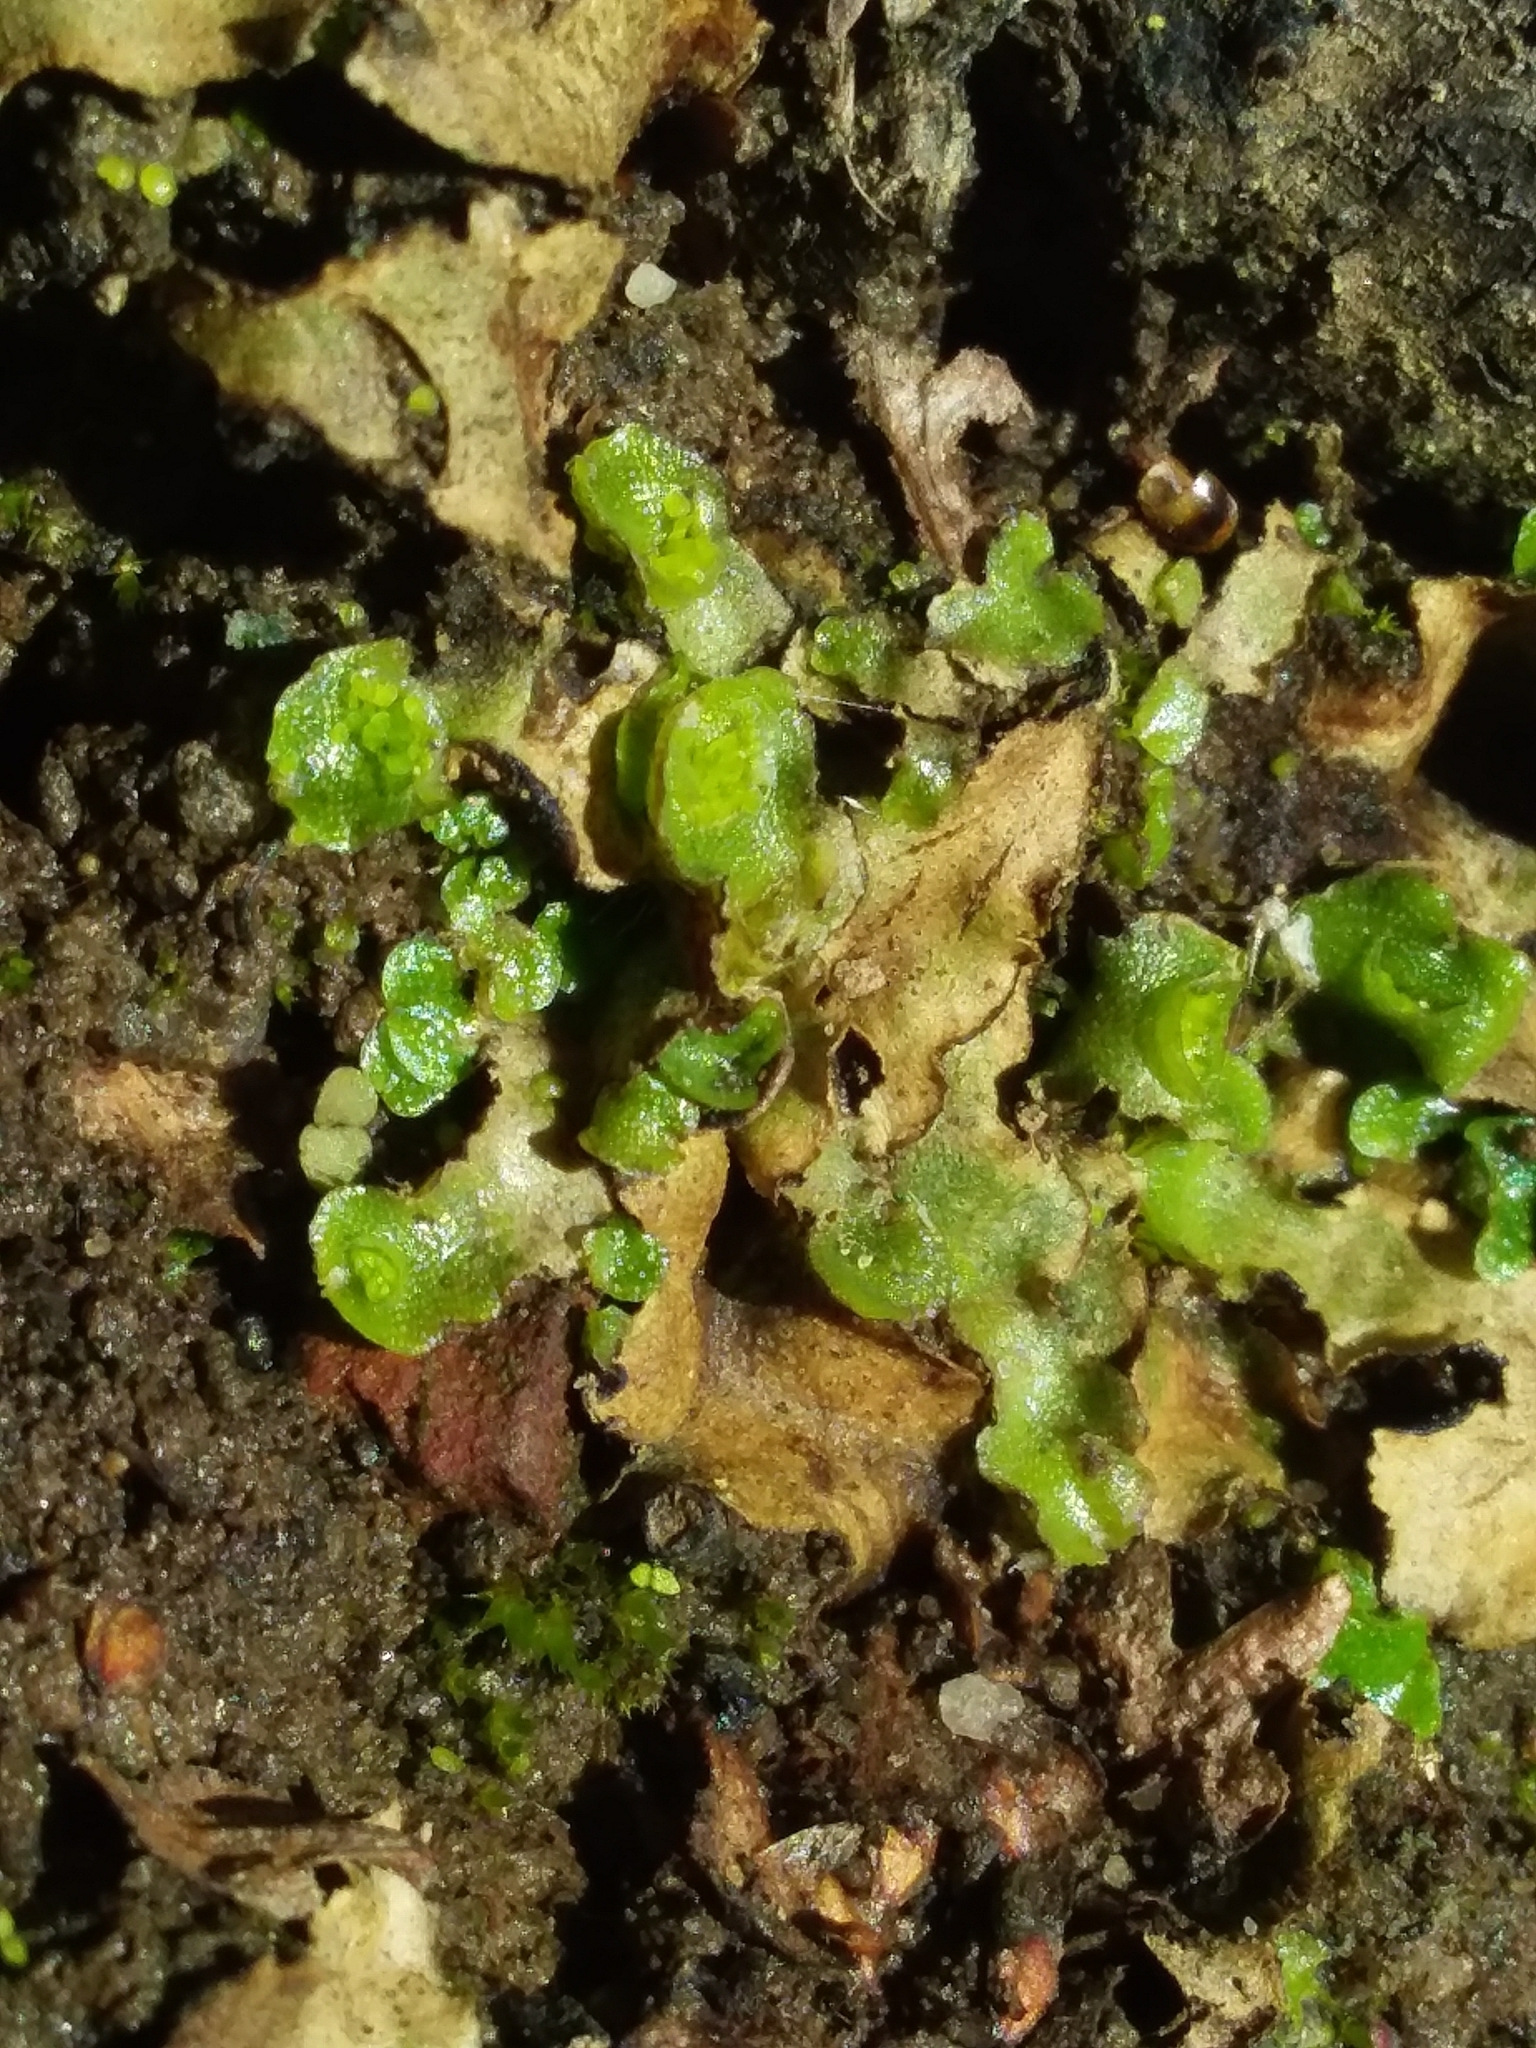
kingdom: Plantae
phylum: Marchantiophyta
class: Marchantiopsida
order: Lunulariales
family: Lunulariaceae
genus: Lunularia
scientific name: Lunularia cruciata
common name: Crescent-cup liverwort
